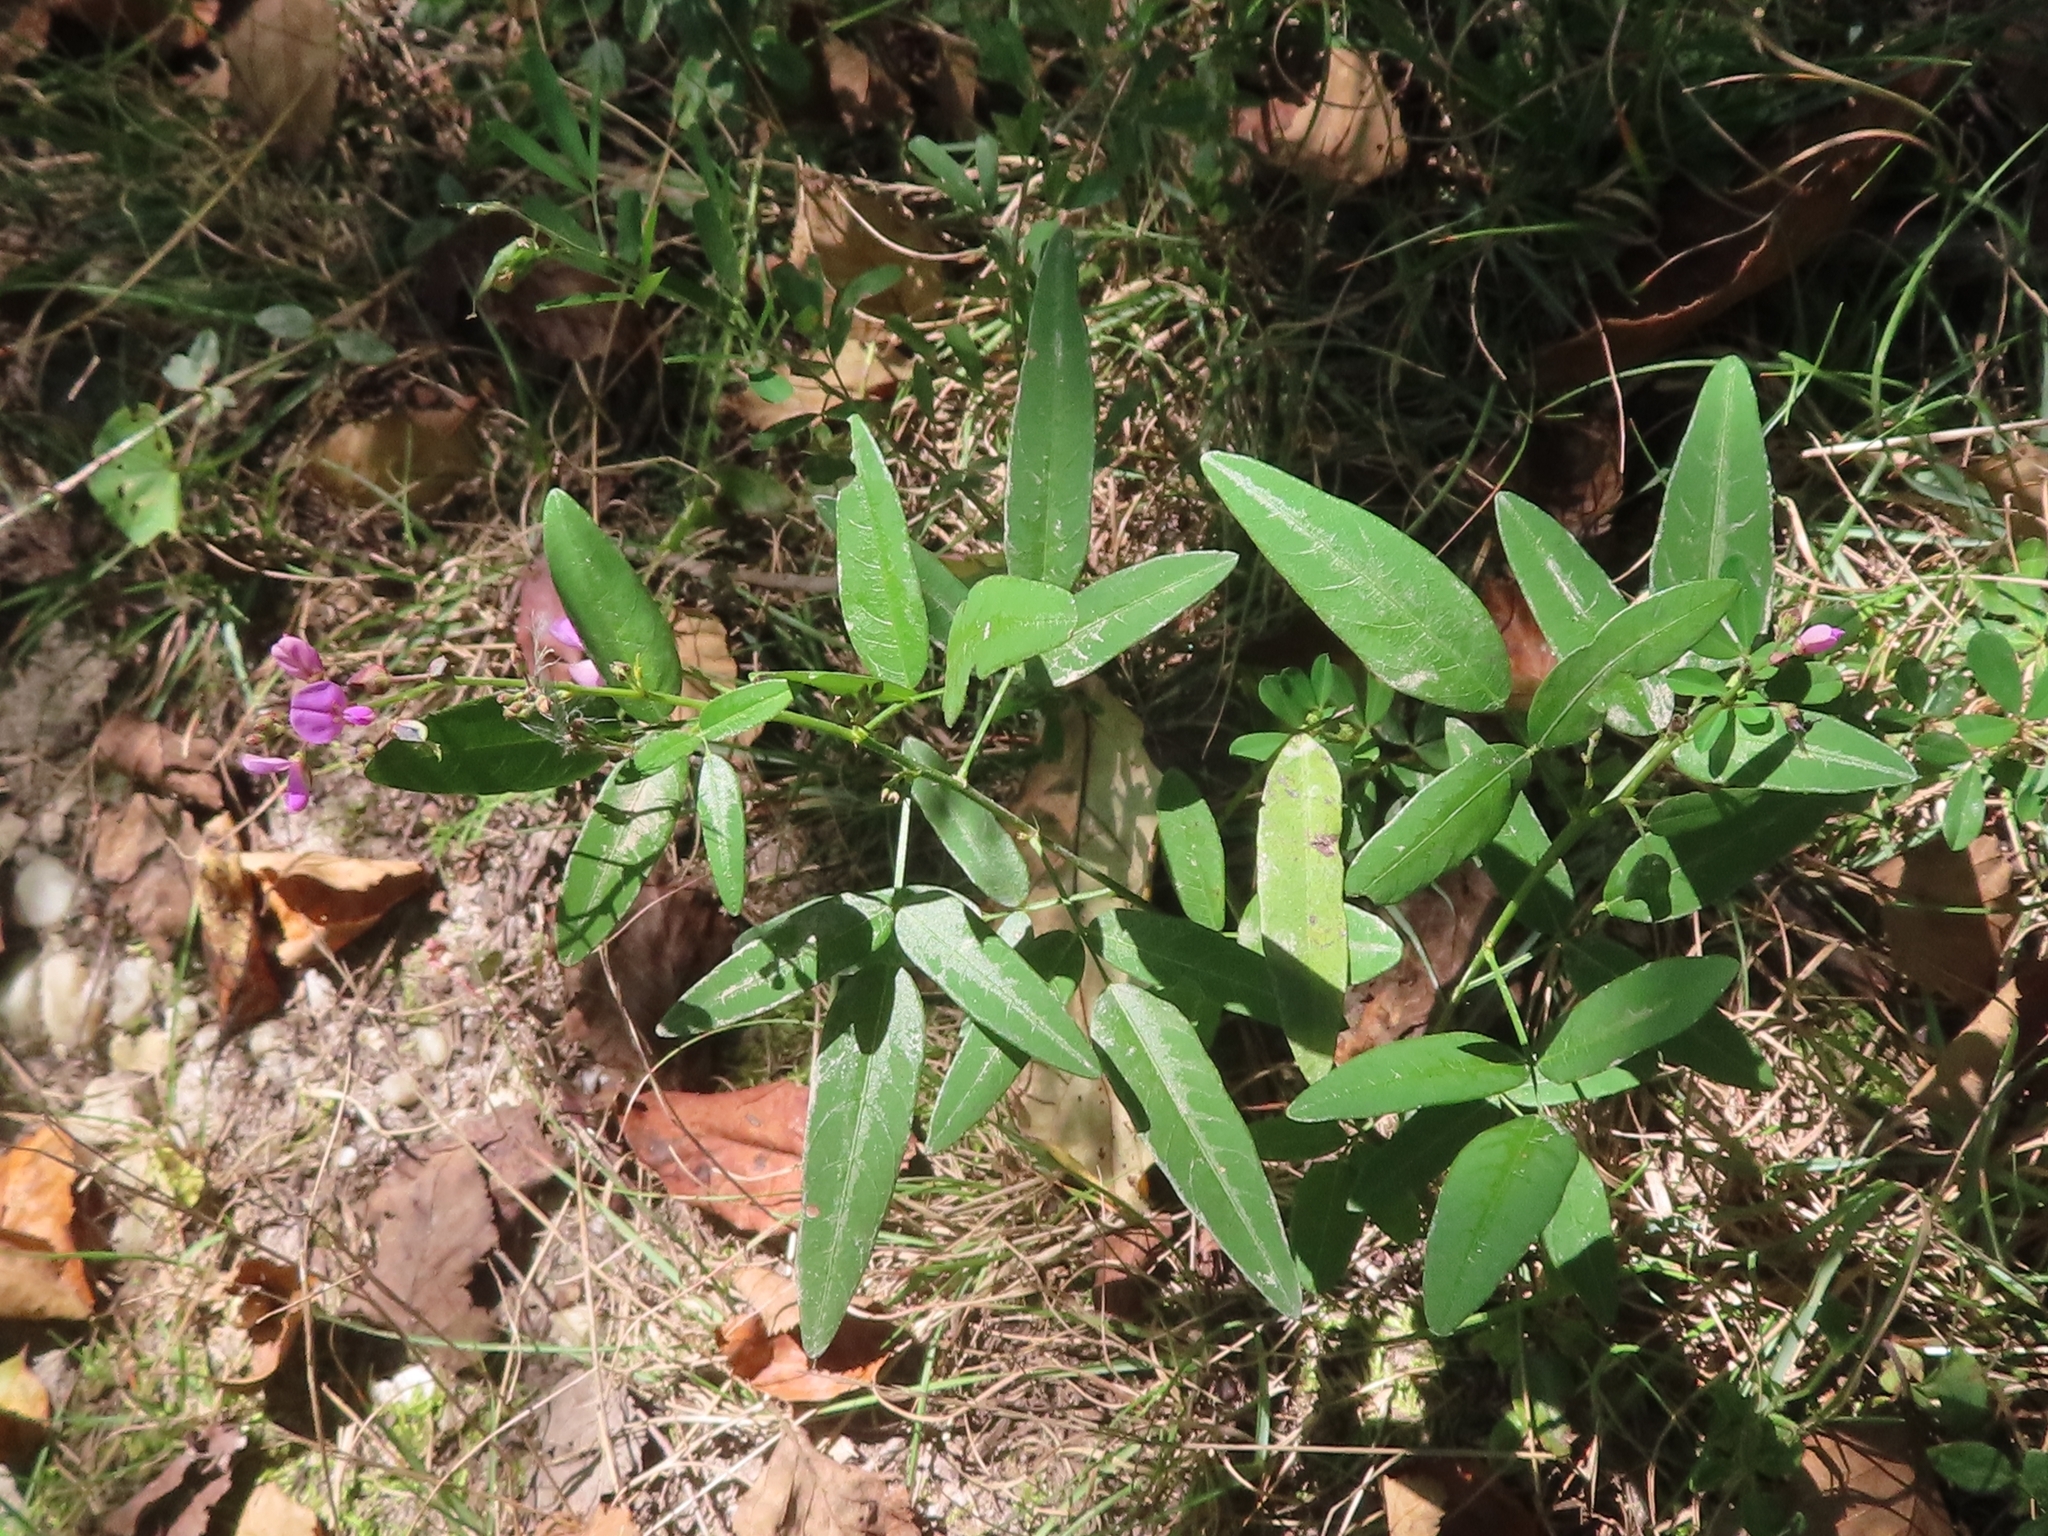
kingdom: Plantae
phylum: Tracheophyta
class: Magnoliopsida
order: Fabales
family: Fabaceae
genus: Desmodium
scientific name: Desmodium paniculatum
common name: Panicled tick-clover
